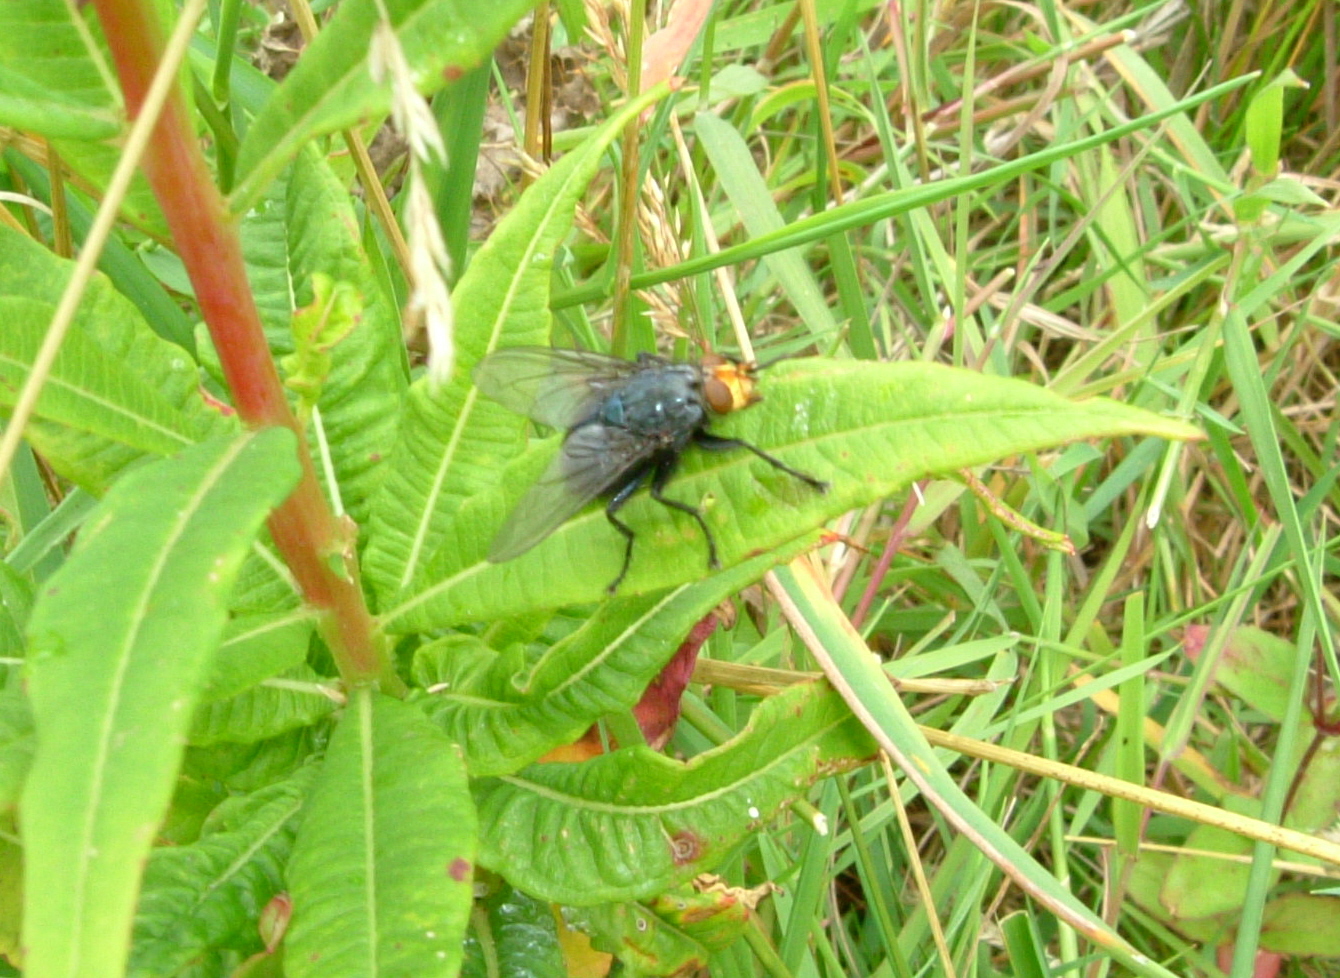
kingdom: Animalia
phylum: Arthropoda
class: Insecta
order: Diptera
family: Calliphoridae
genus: Cynomya
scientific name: Cynomya mortuorum
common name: Bluebottle blow fly
